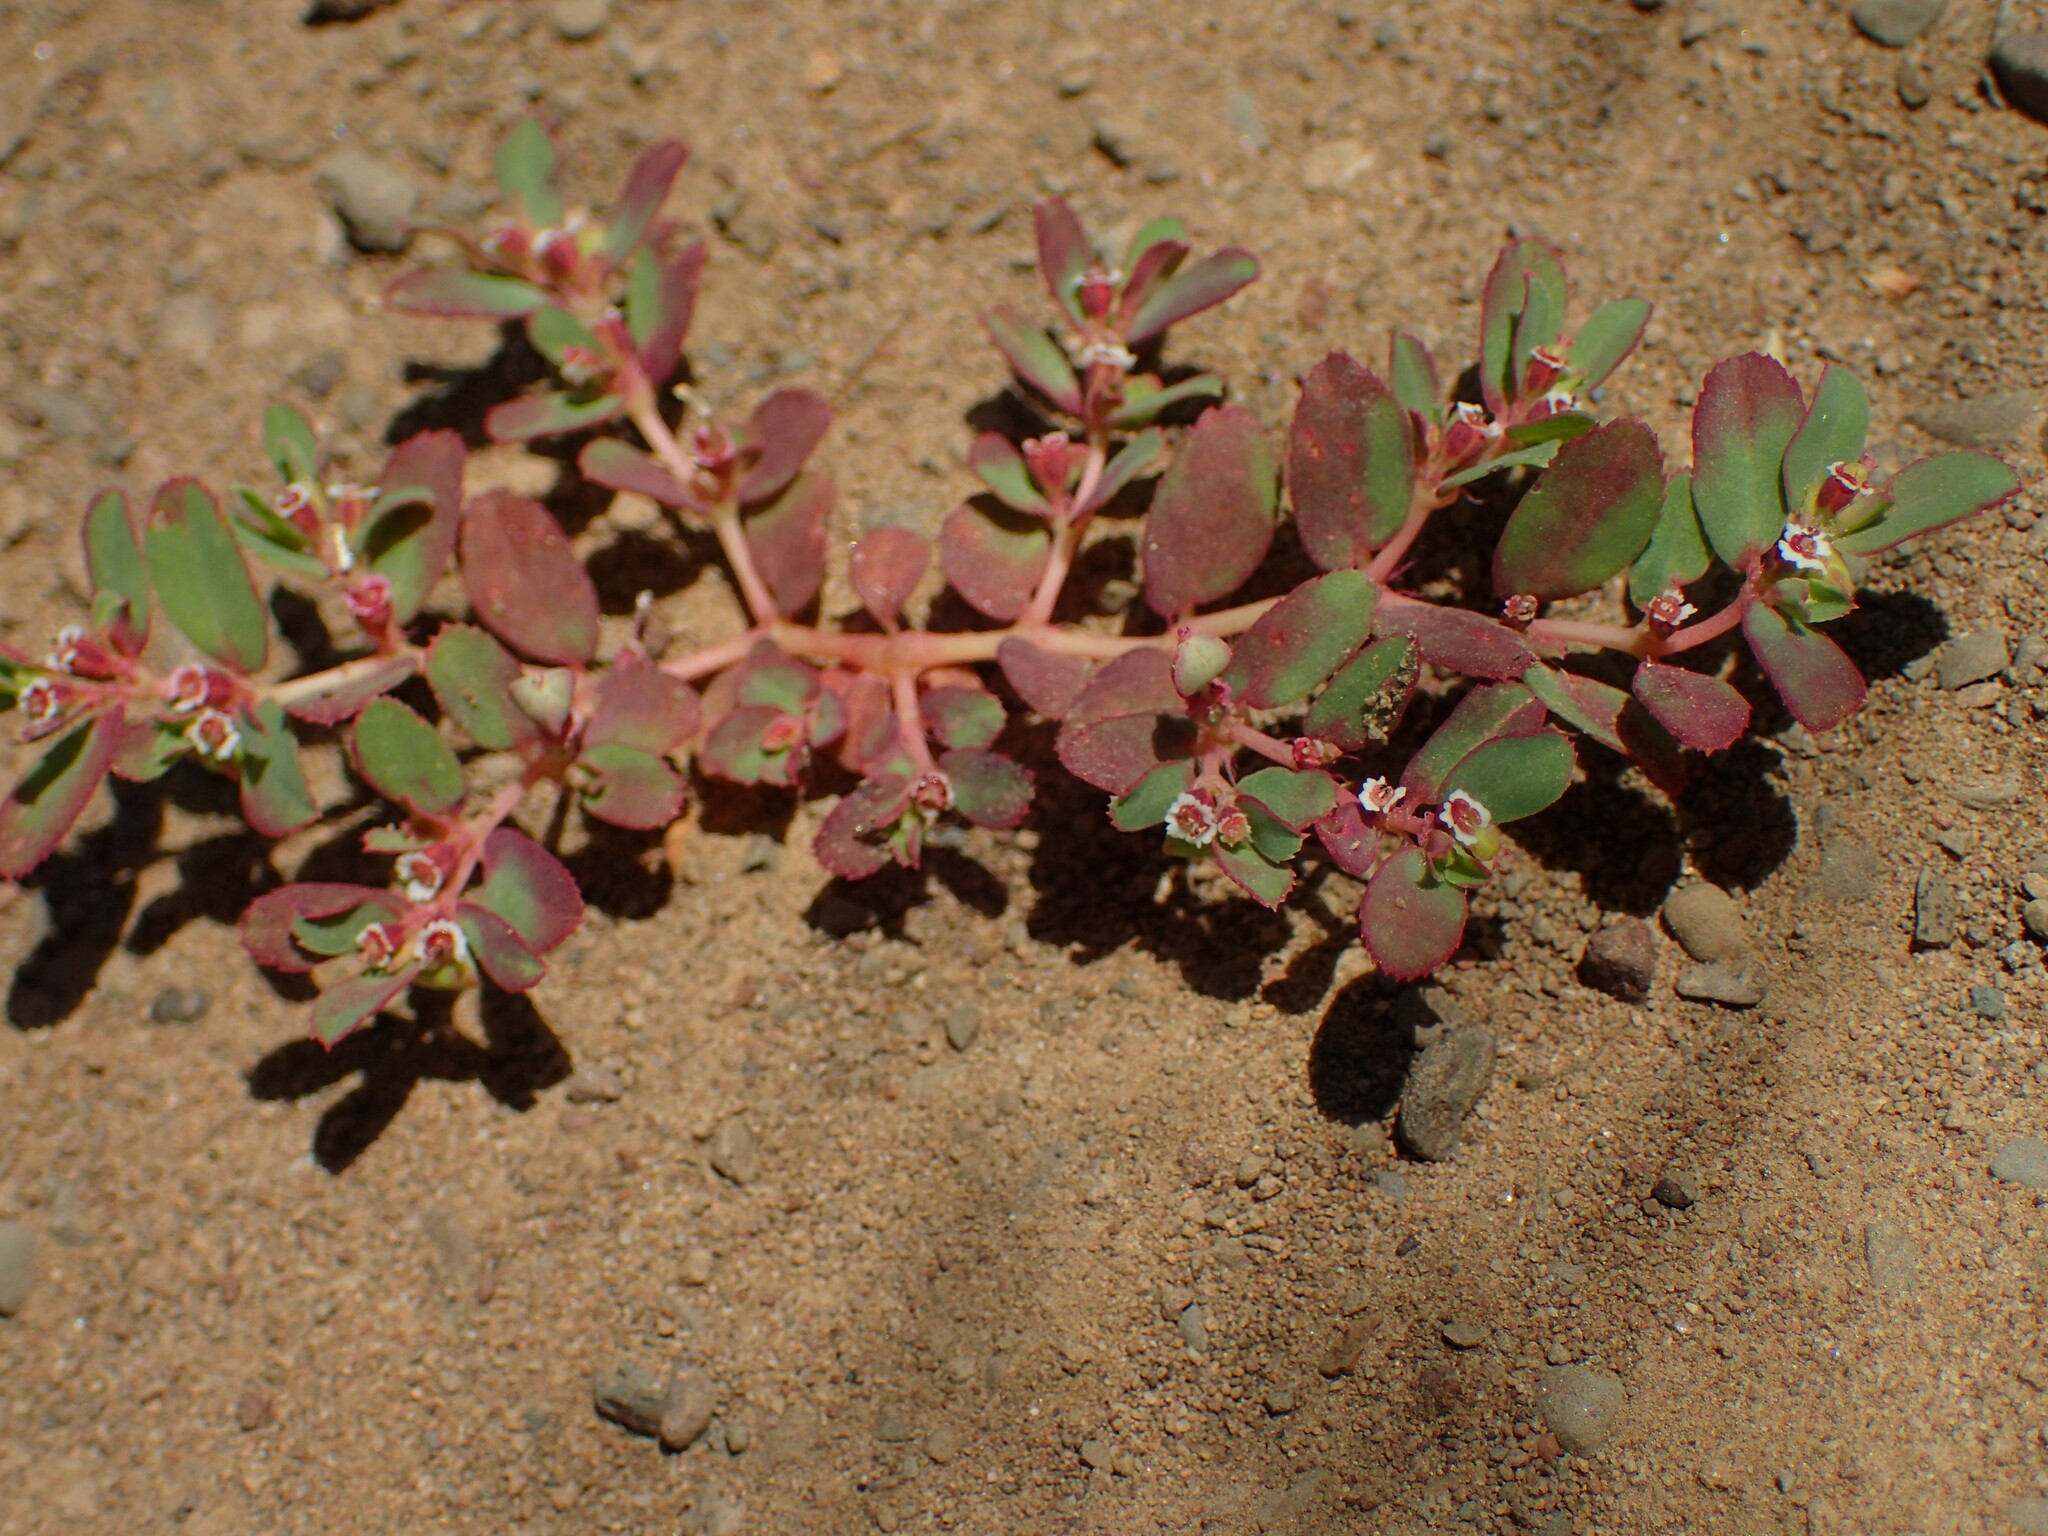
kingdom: Plantae
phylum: Tracheophyta
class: Magnoliopsida
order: Malpighiales
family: Euphorbiaceae
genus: Euphorbia
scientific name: Euphorbia serpillifolia
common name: Thyme-leaf spurge
